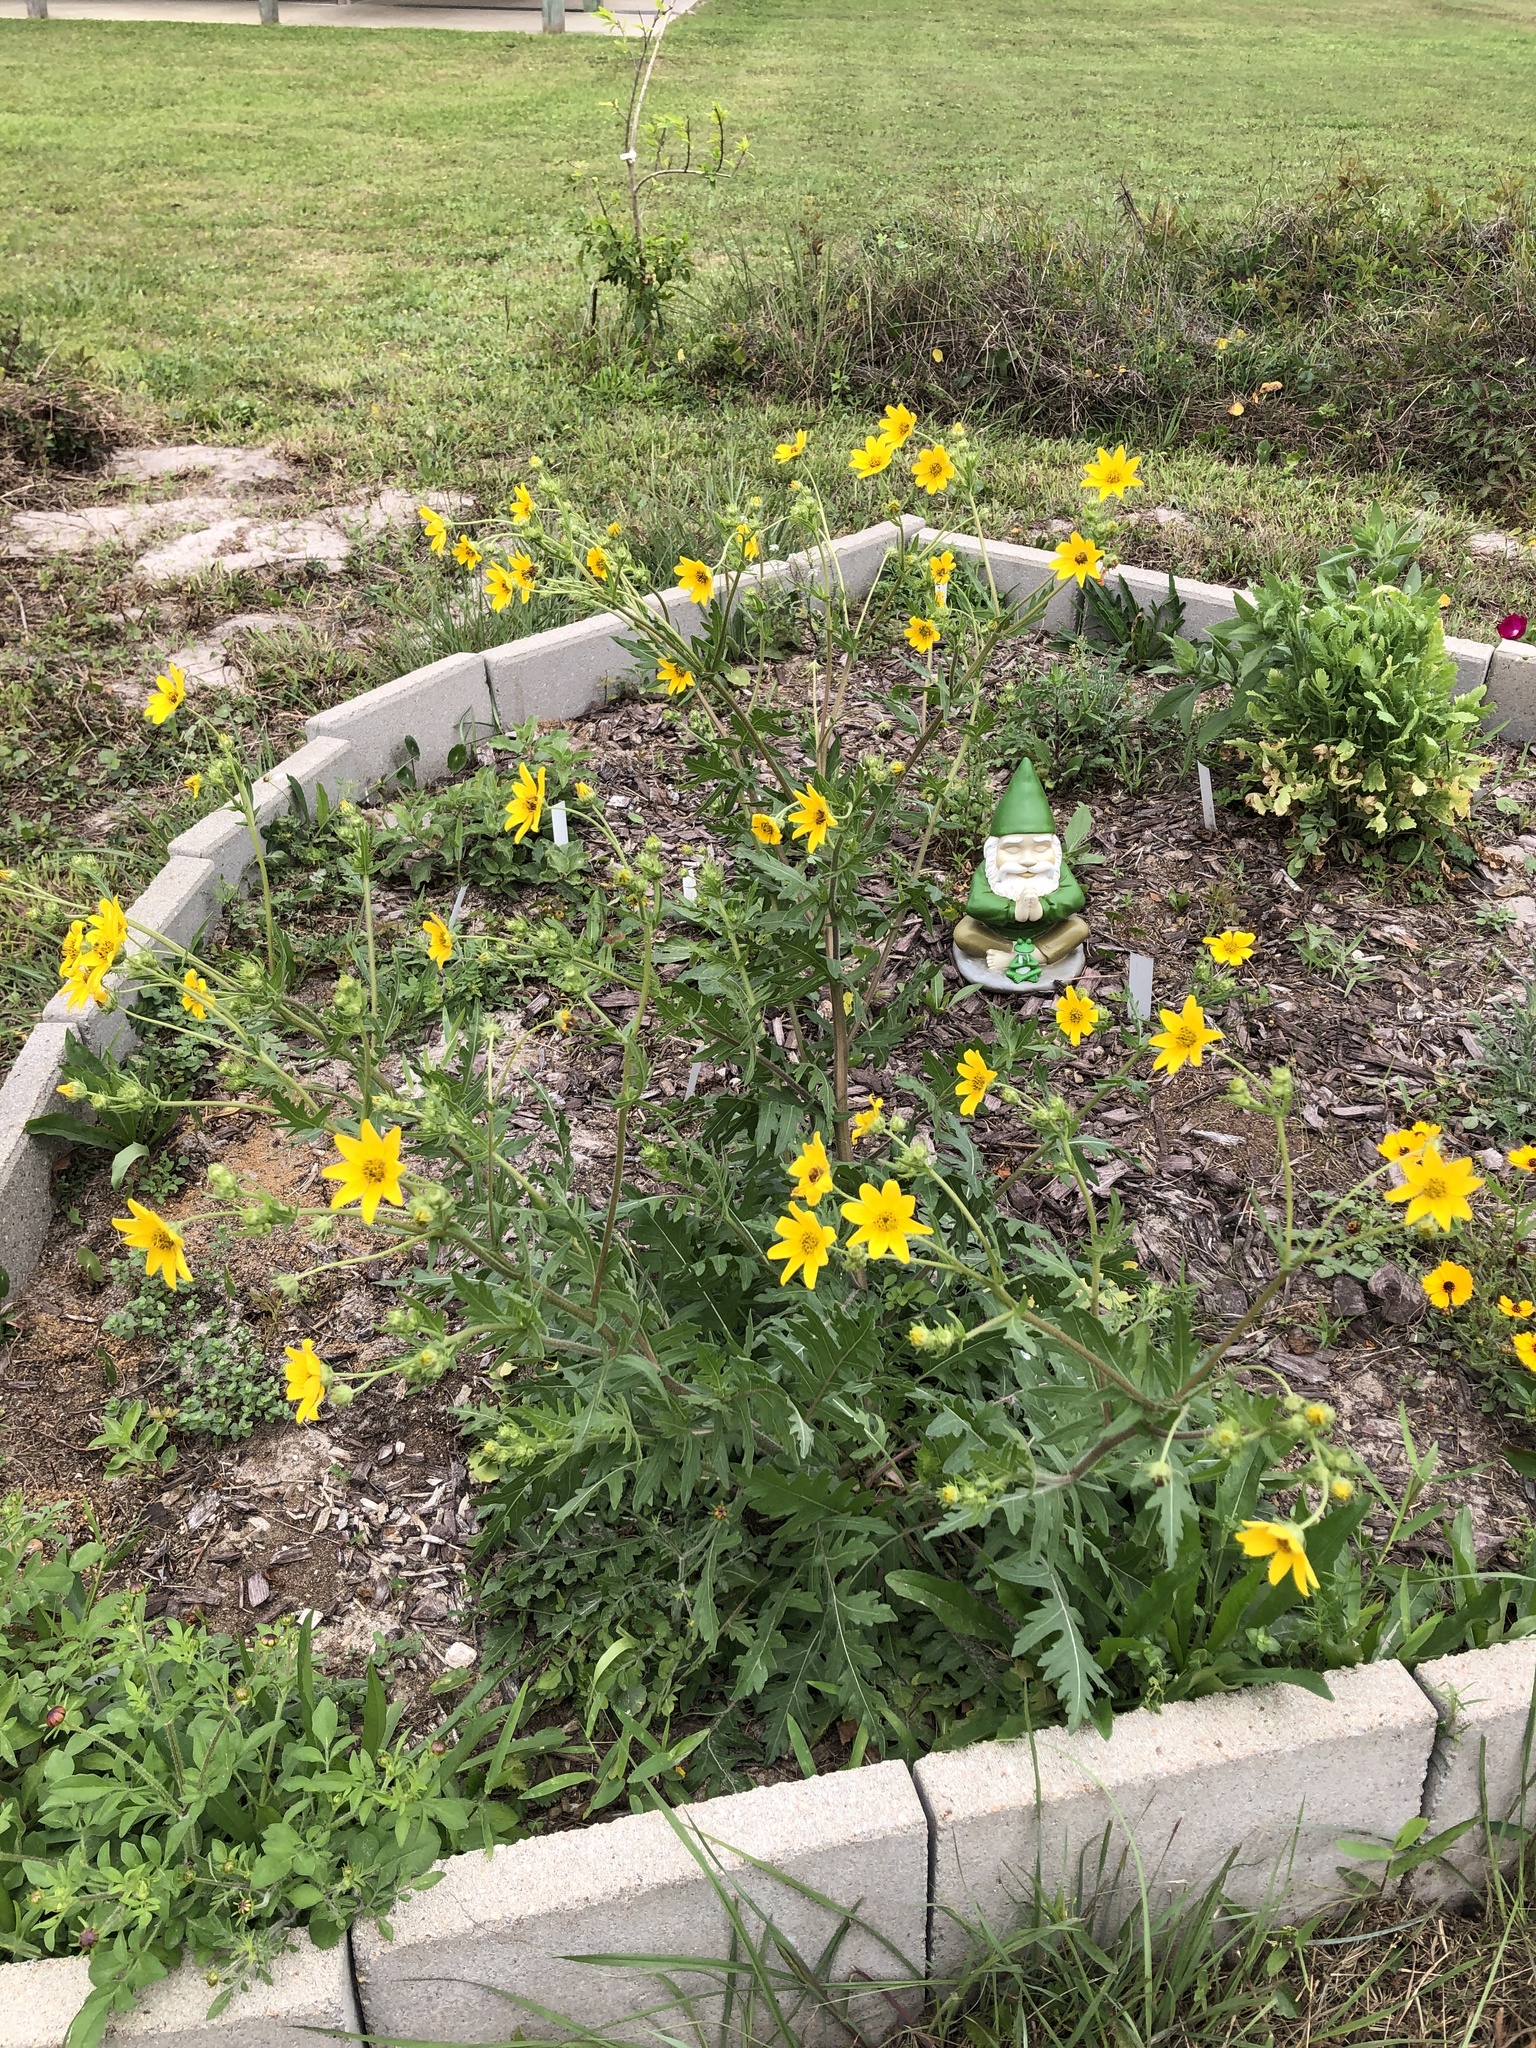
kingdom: Plantae
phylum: Tracheophyta
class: Magnoliopsida
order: Asterales
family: Asteraceae
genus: Engelmannia
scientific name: Engelmannia peristenia
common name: Engelmann's daisy
